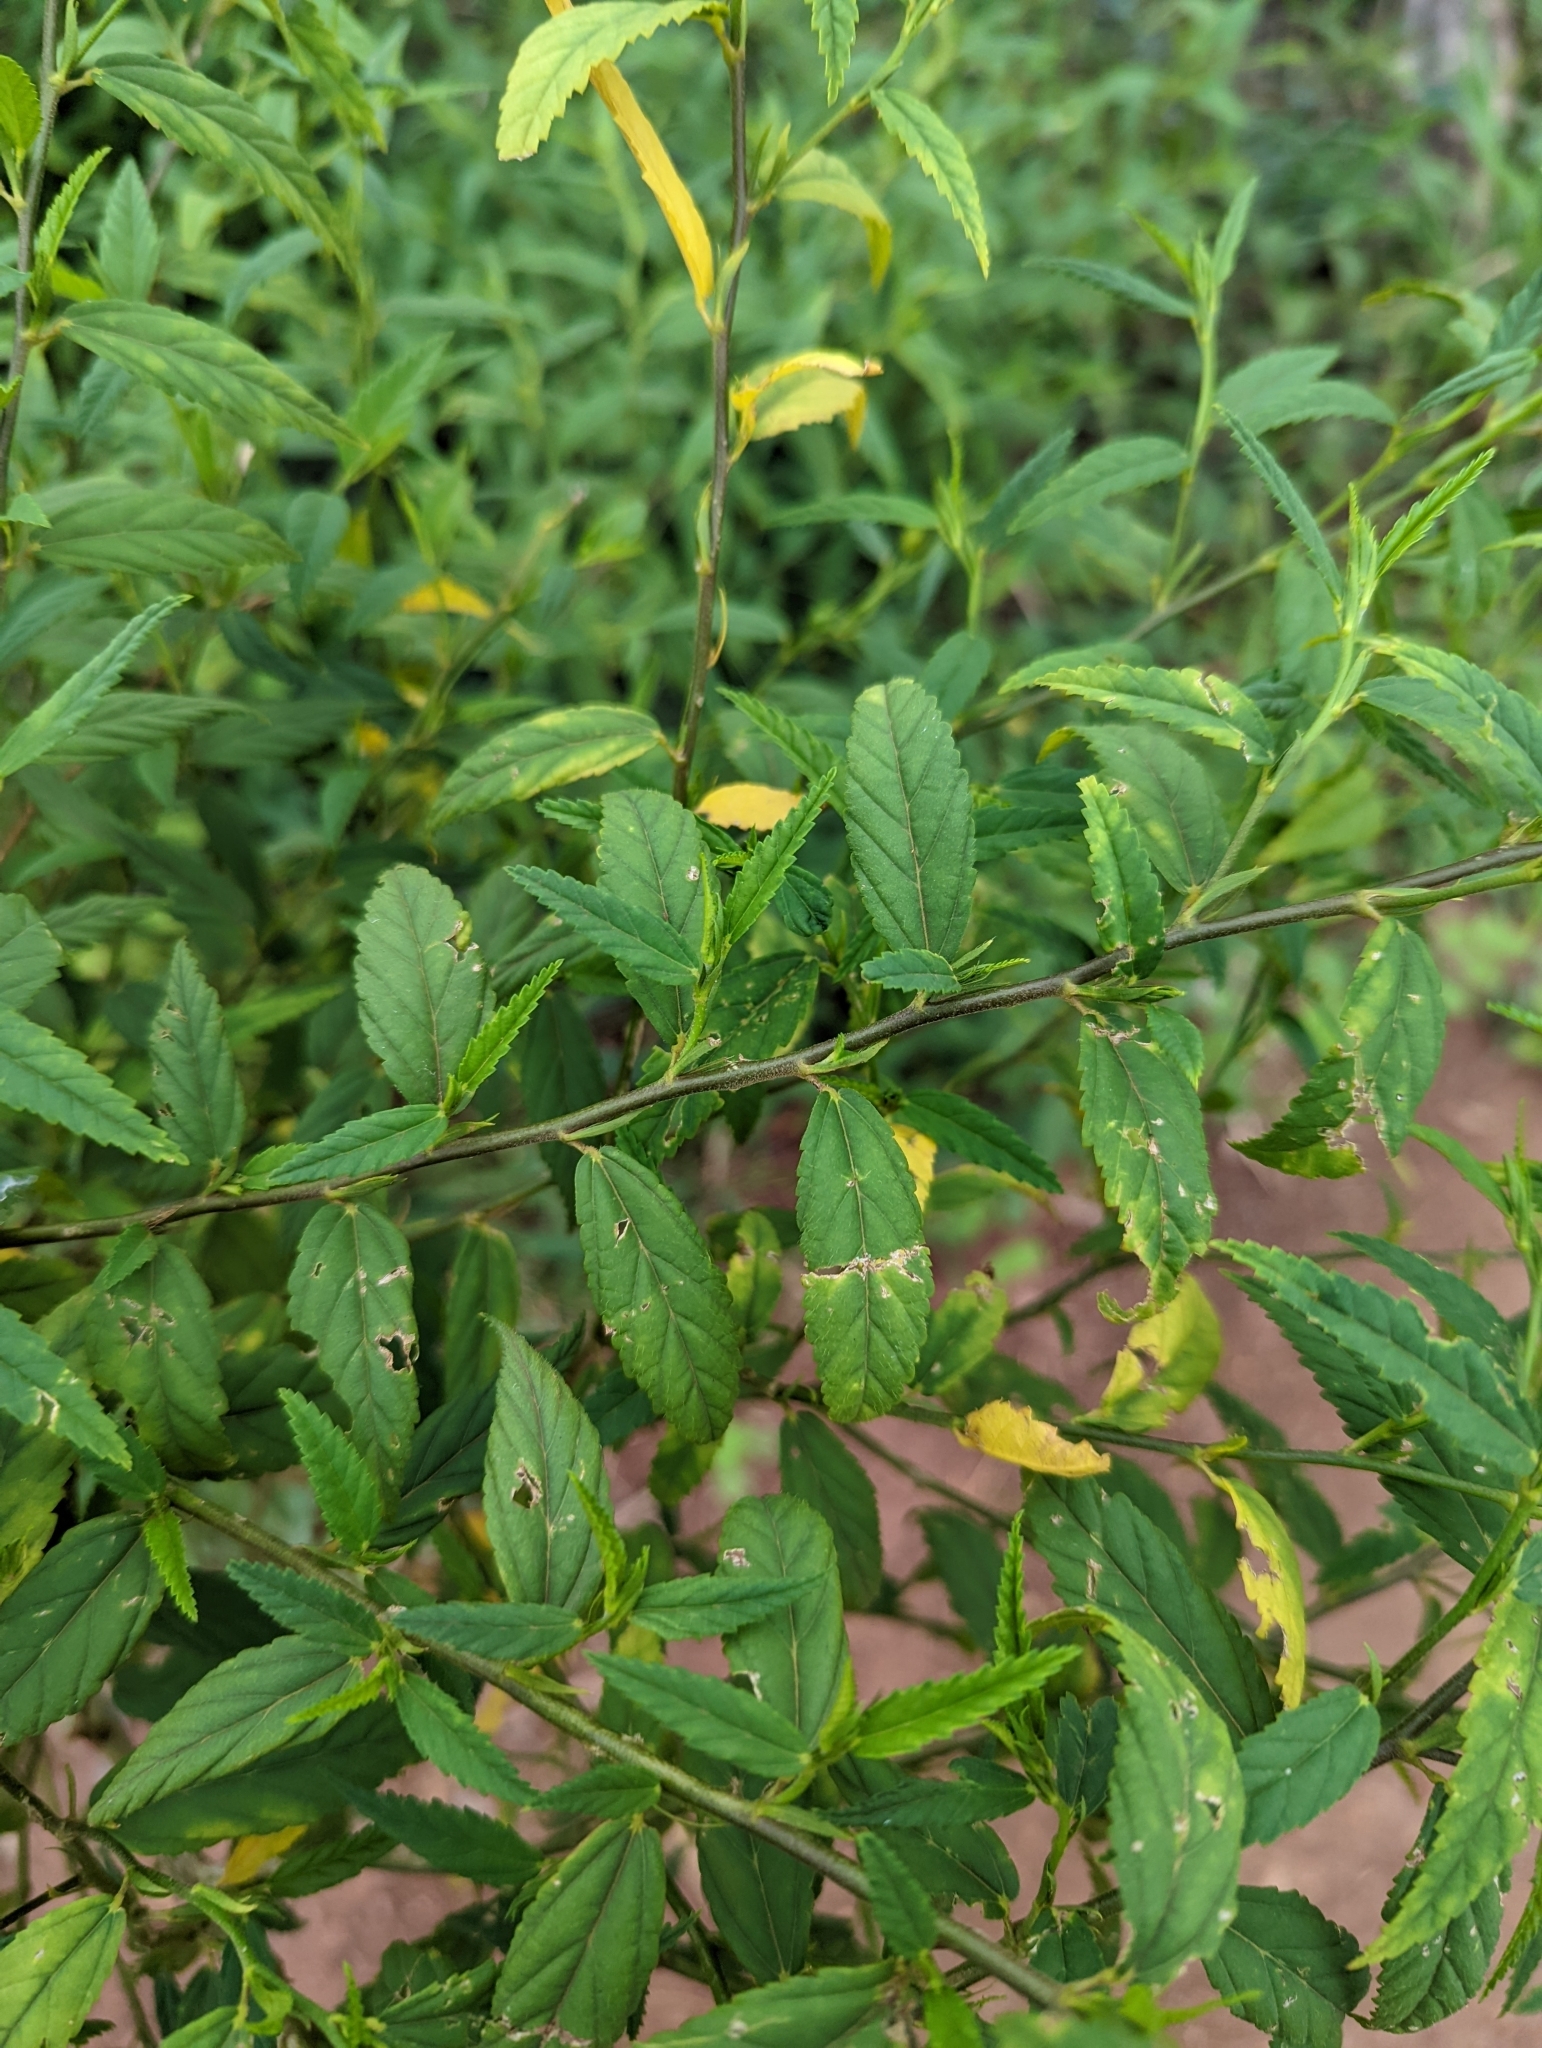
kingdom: Plantae
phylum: Tracheophyta
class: Magnoliopsida
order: Malvales
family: Malvaceae
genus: Sida
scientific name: Sida acuta
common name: Common wireweed
